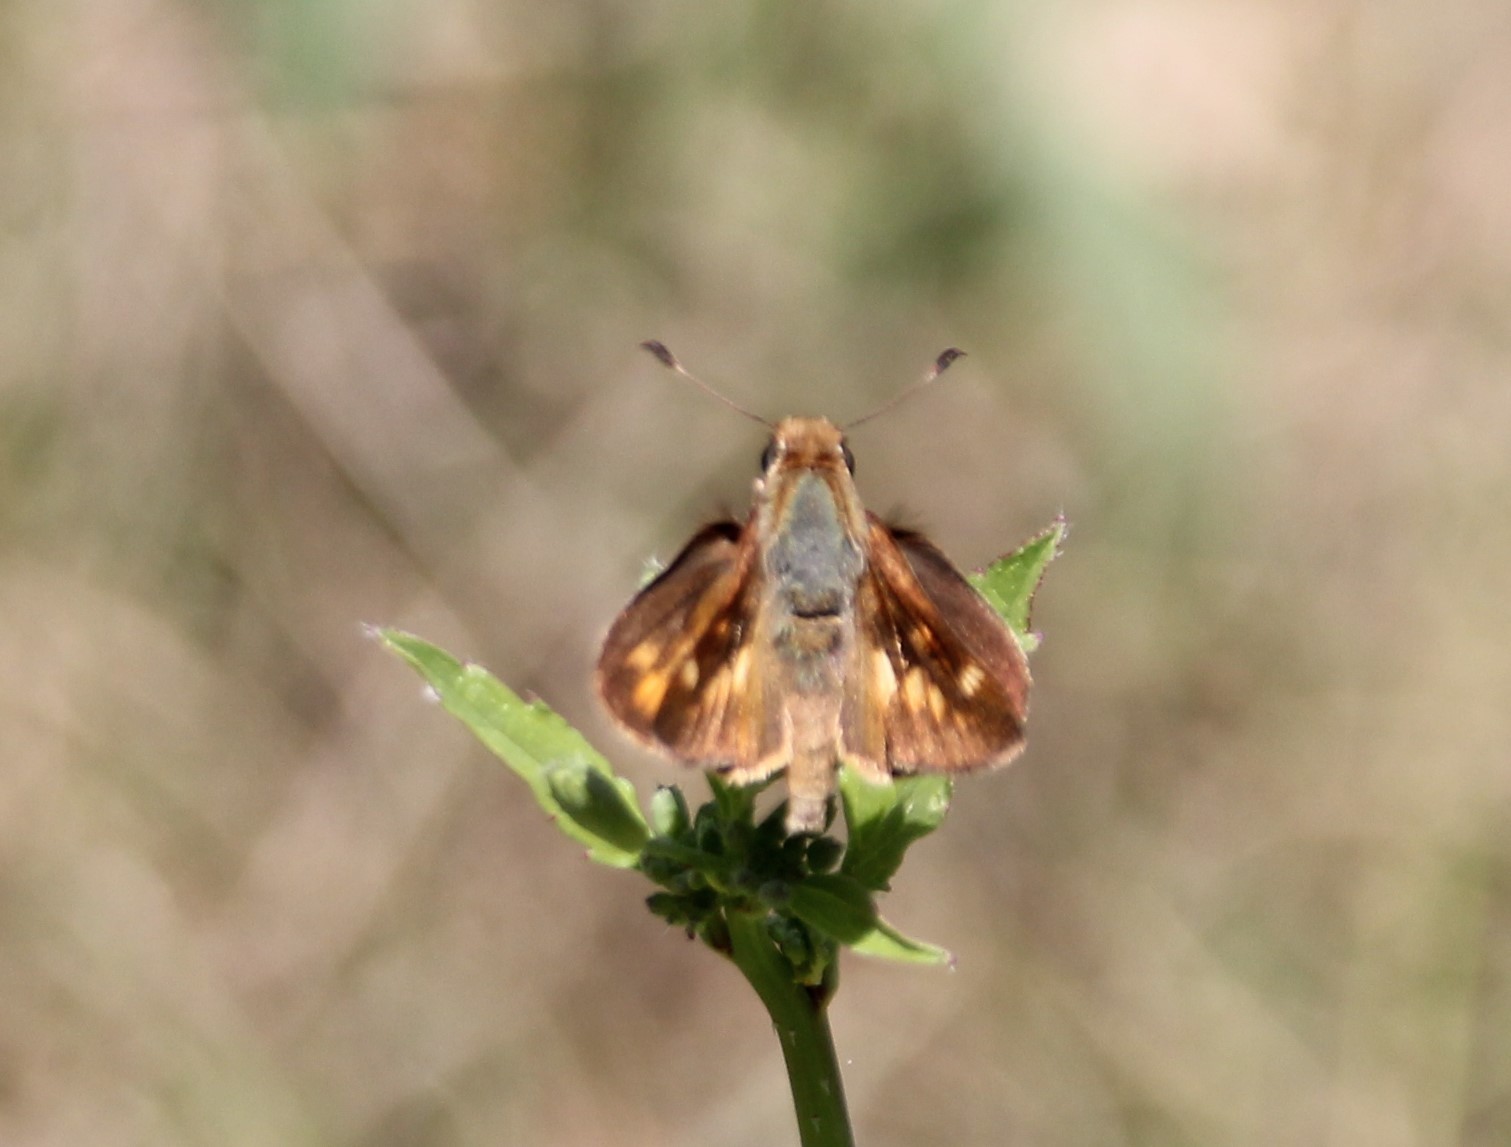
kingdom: Animalia
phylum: Arthropoda
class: Insecta
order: Lepidoptera
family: Hesperiidae
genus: Lon
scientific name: Lon melane
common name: Umber skipper
